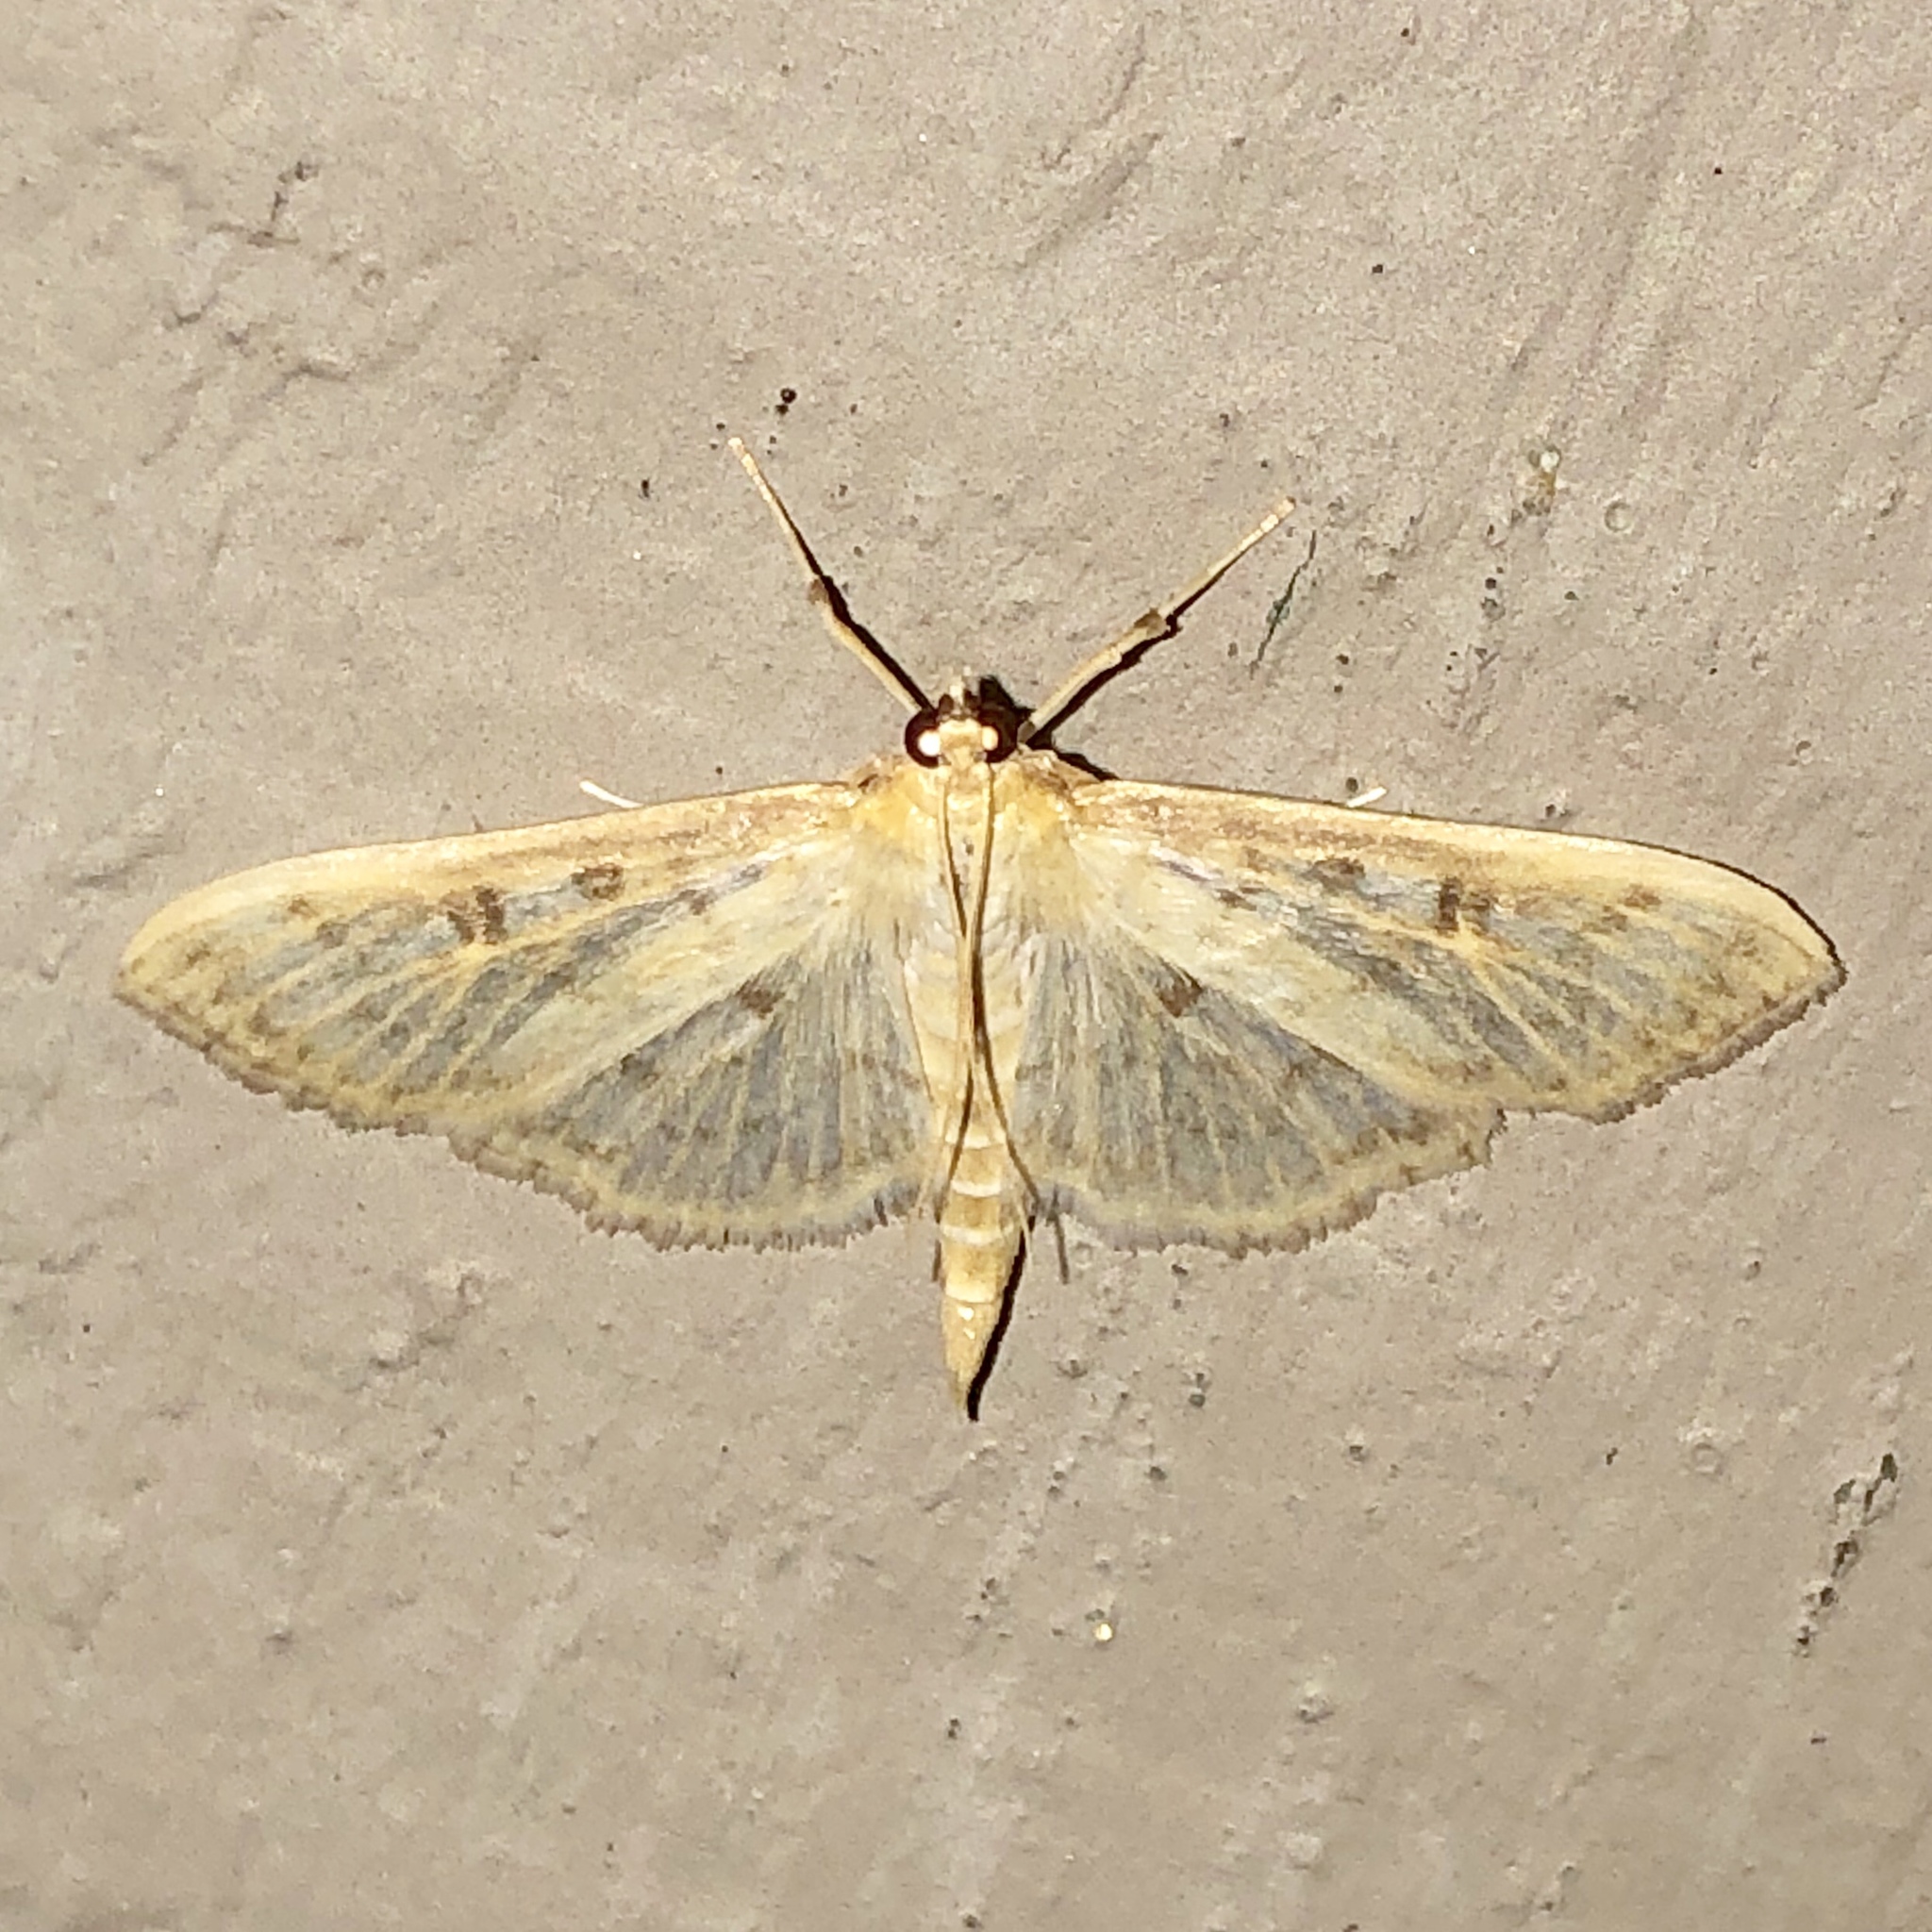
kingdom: Animalia
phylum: Arthropoda
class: Insecta
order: Lepidoptera
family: Crambidae
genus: Herpetogramma
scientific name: Herpetogramma aquilonalis
